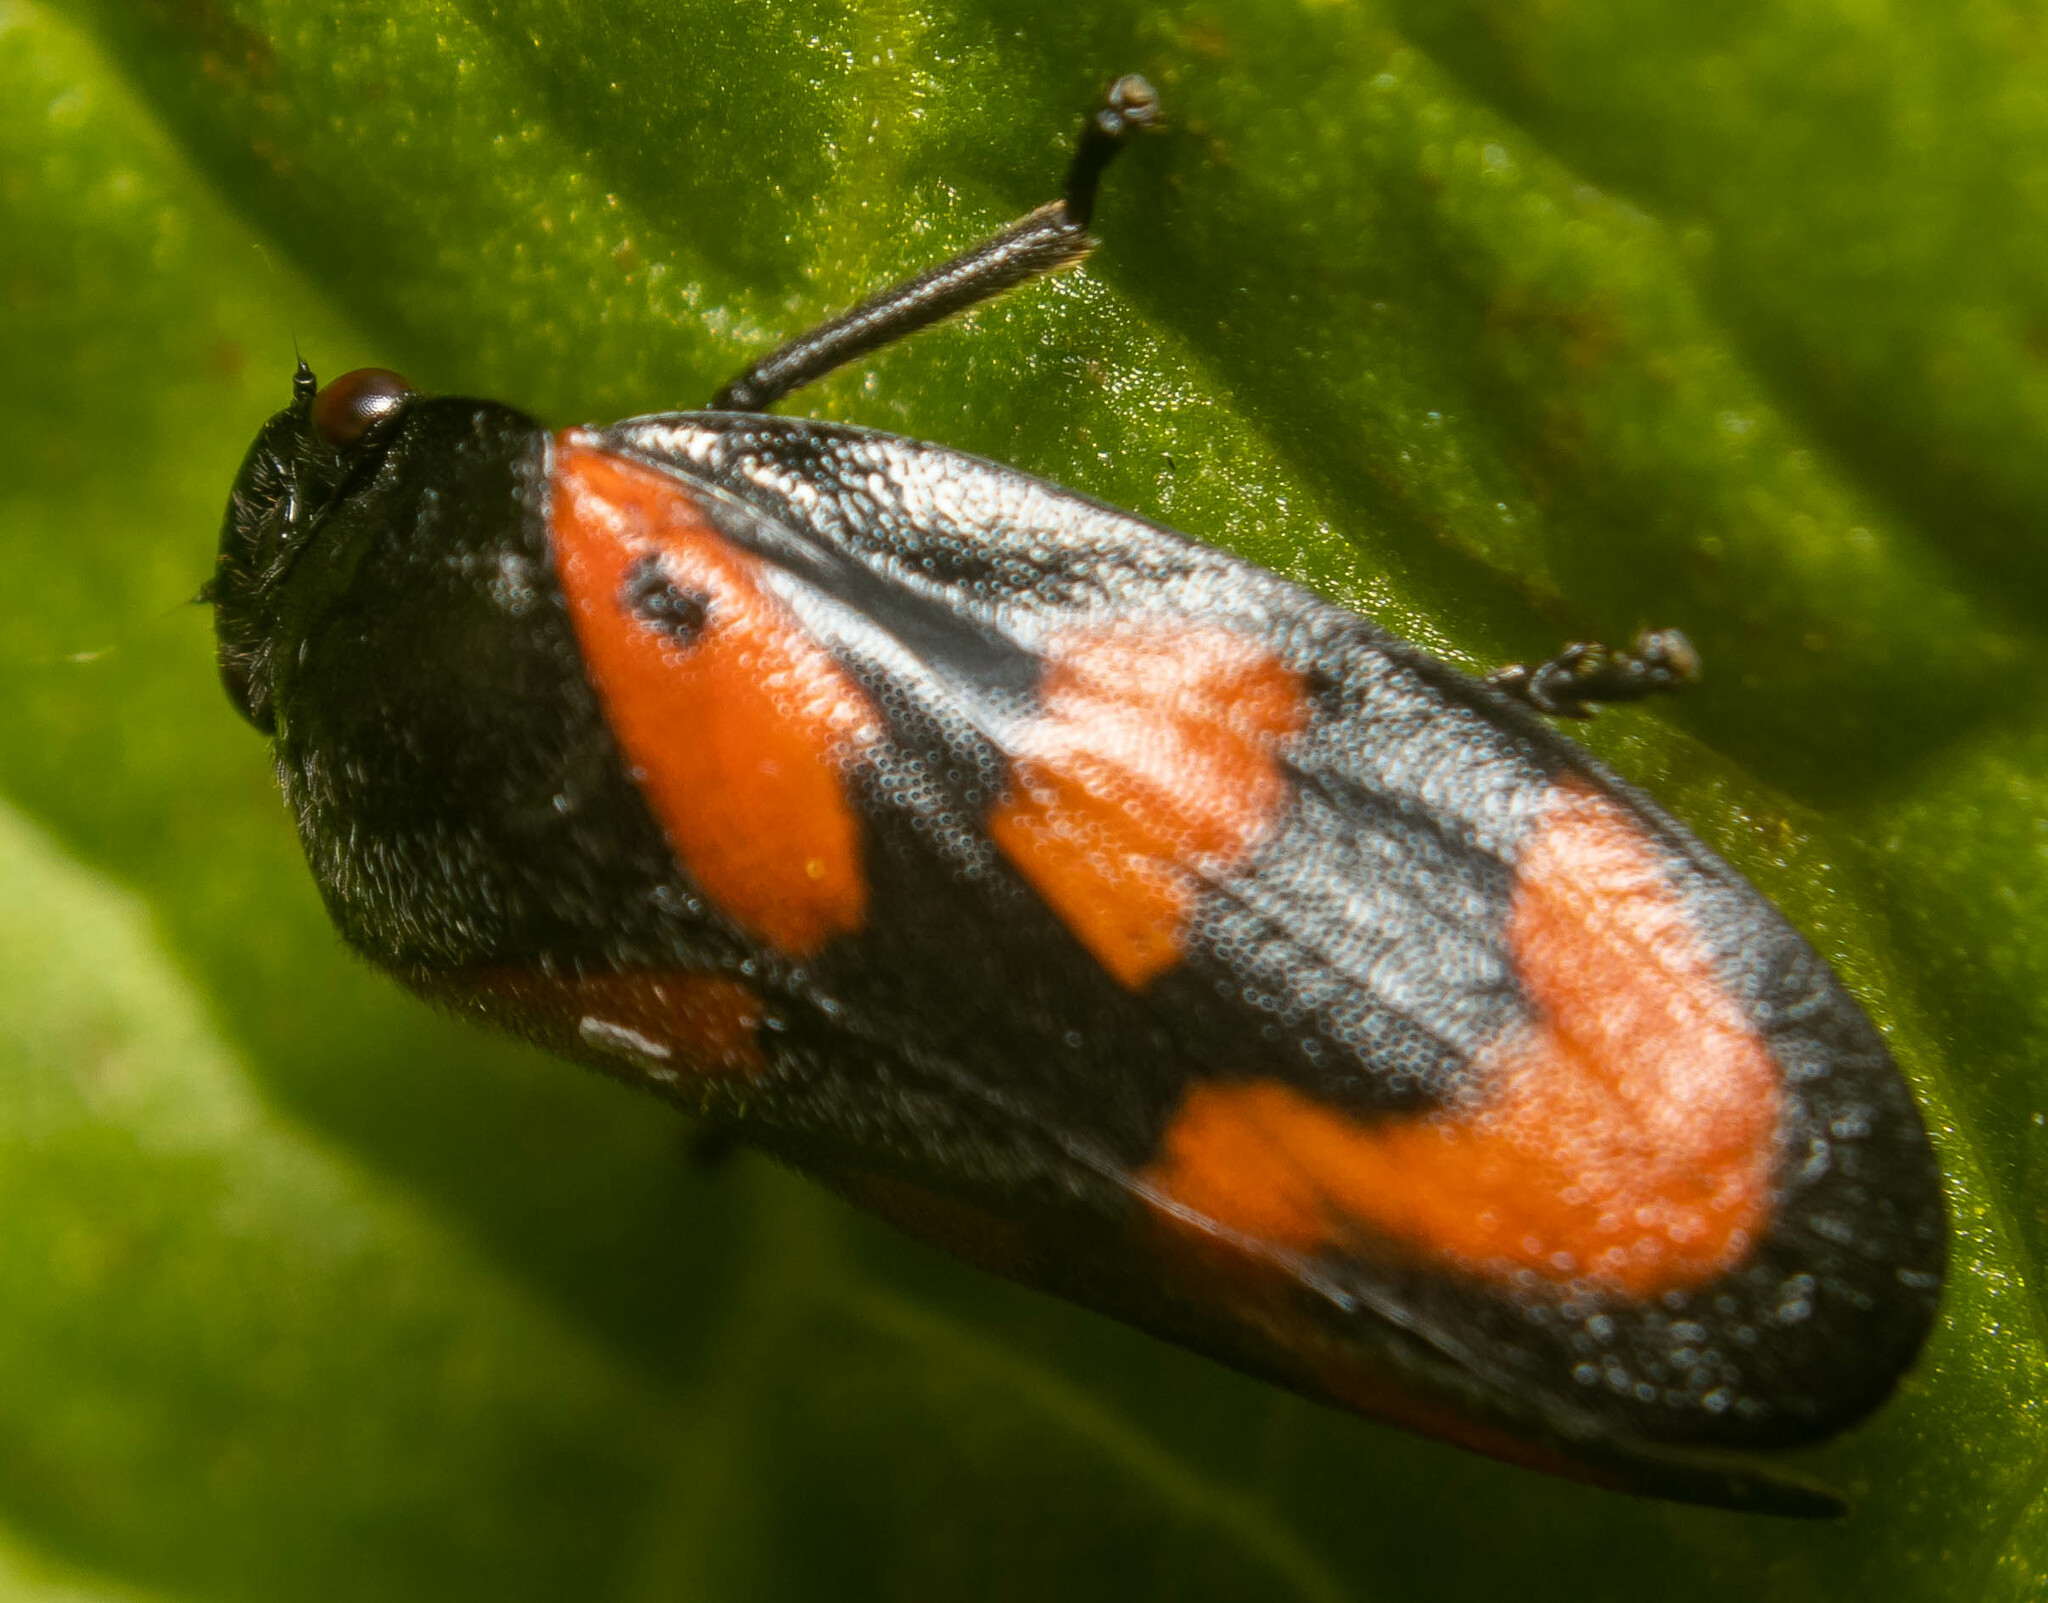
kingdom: Animalia
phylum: Arthropoda
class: Insecta
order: Hemiptera
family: Cercopidae
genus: Cercopis
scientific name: Cercopis vulnerata
